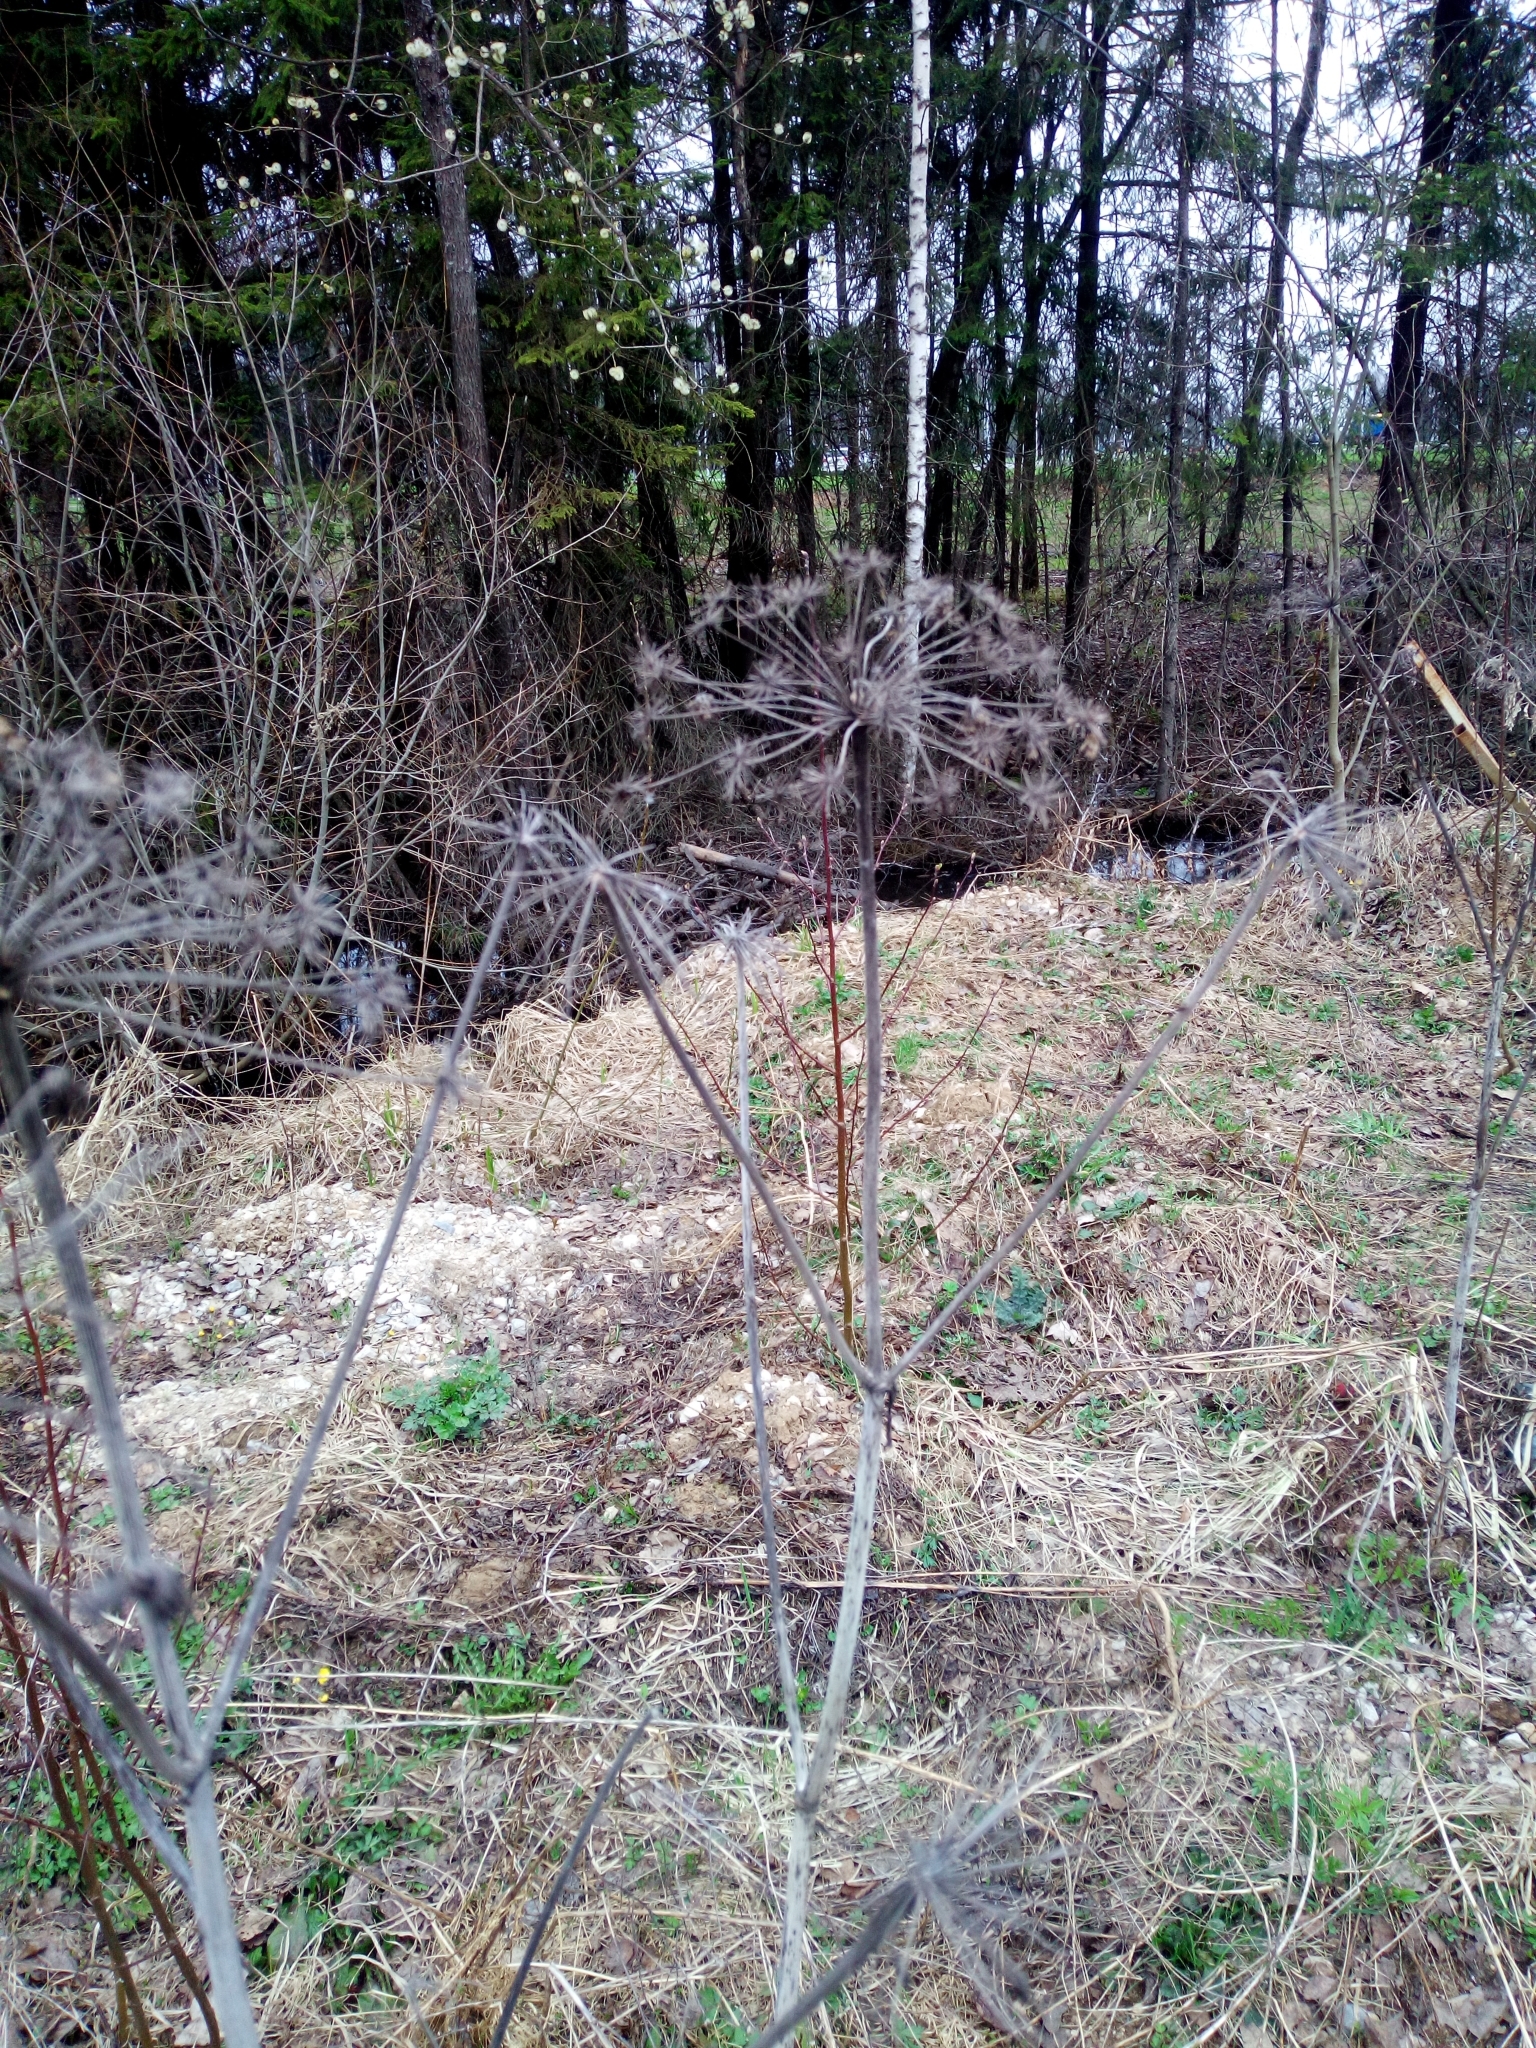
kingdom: Plantae
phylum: Tracheophyta
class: Magnoliopsida
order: Apiales
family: Apiaceae
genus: Angelica
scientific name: Angelica sylvestris
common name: Wild angelica
